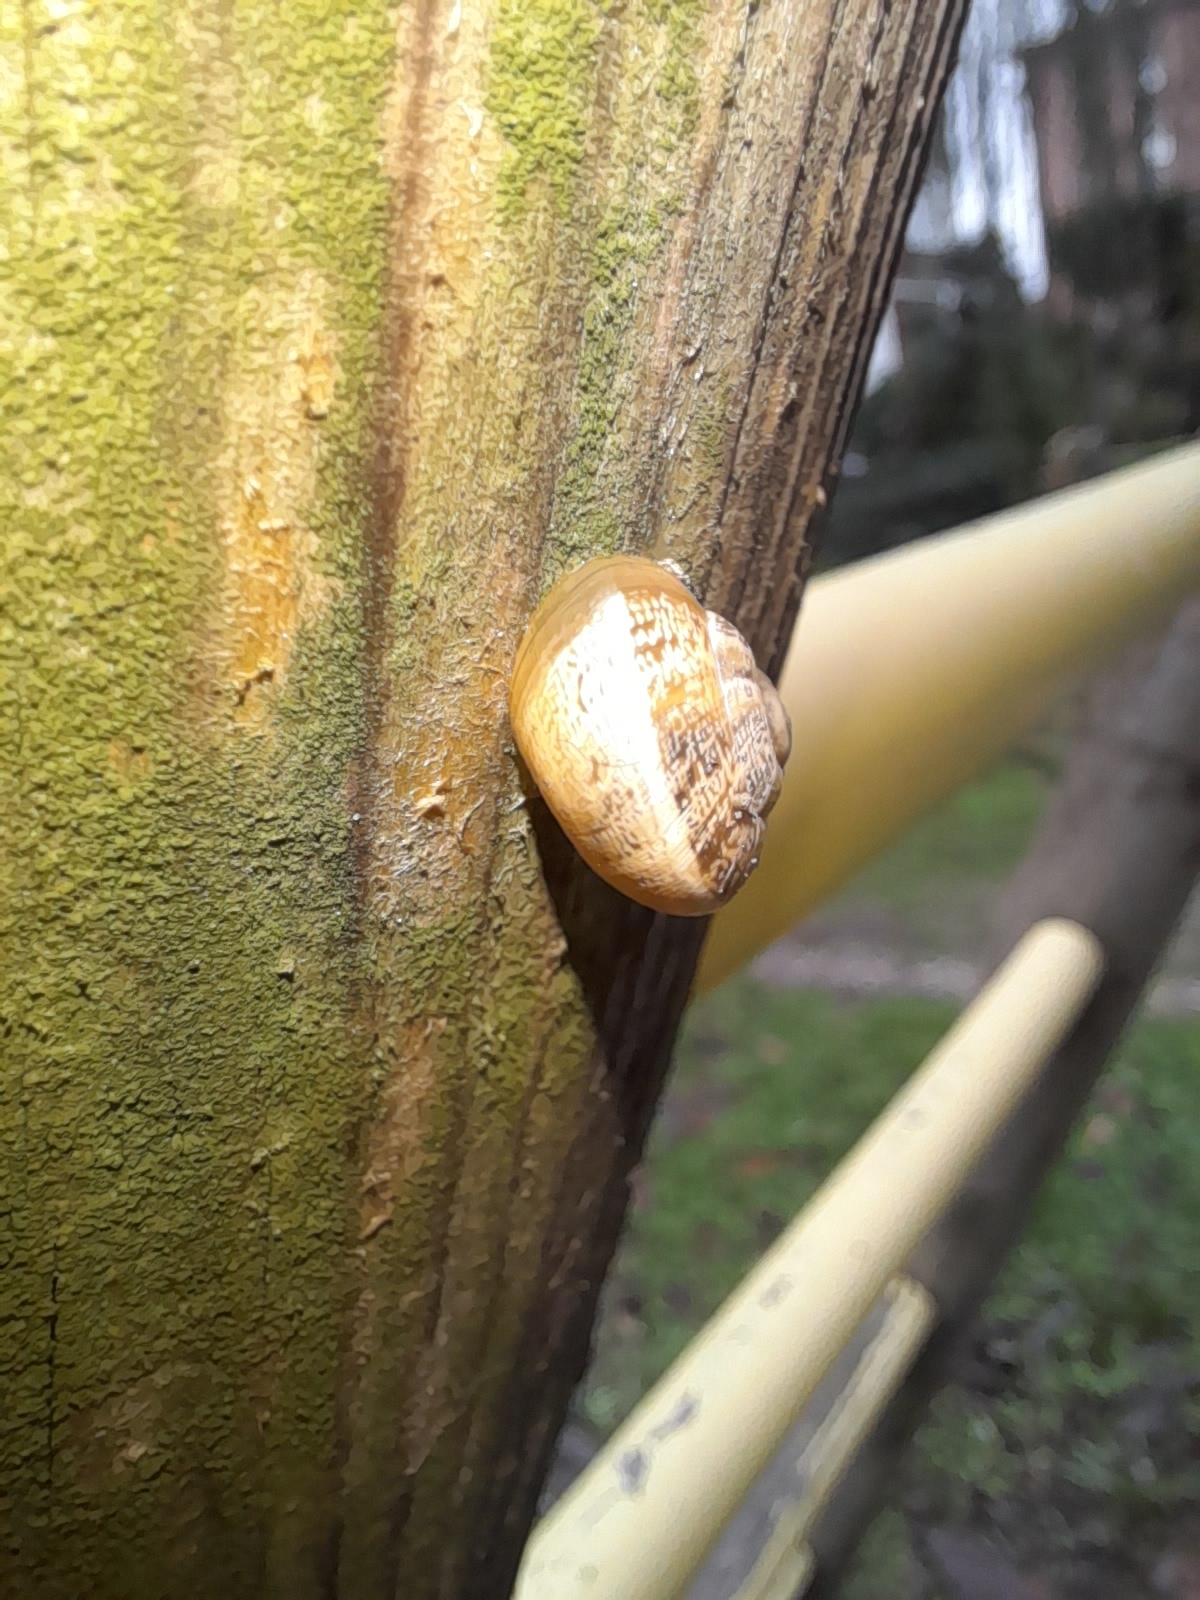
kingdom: Animalia
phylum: Mollusca
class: Gastropoda
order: Stylommatophora
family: Helicidae
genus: Eobania
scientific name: Eobania vermiculata
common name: Chocolateband snail
